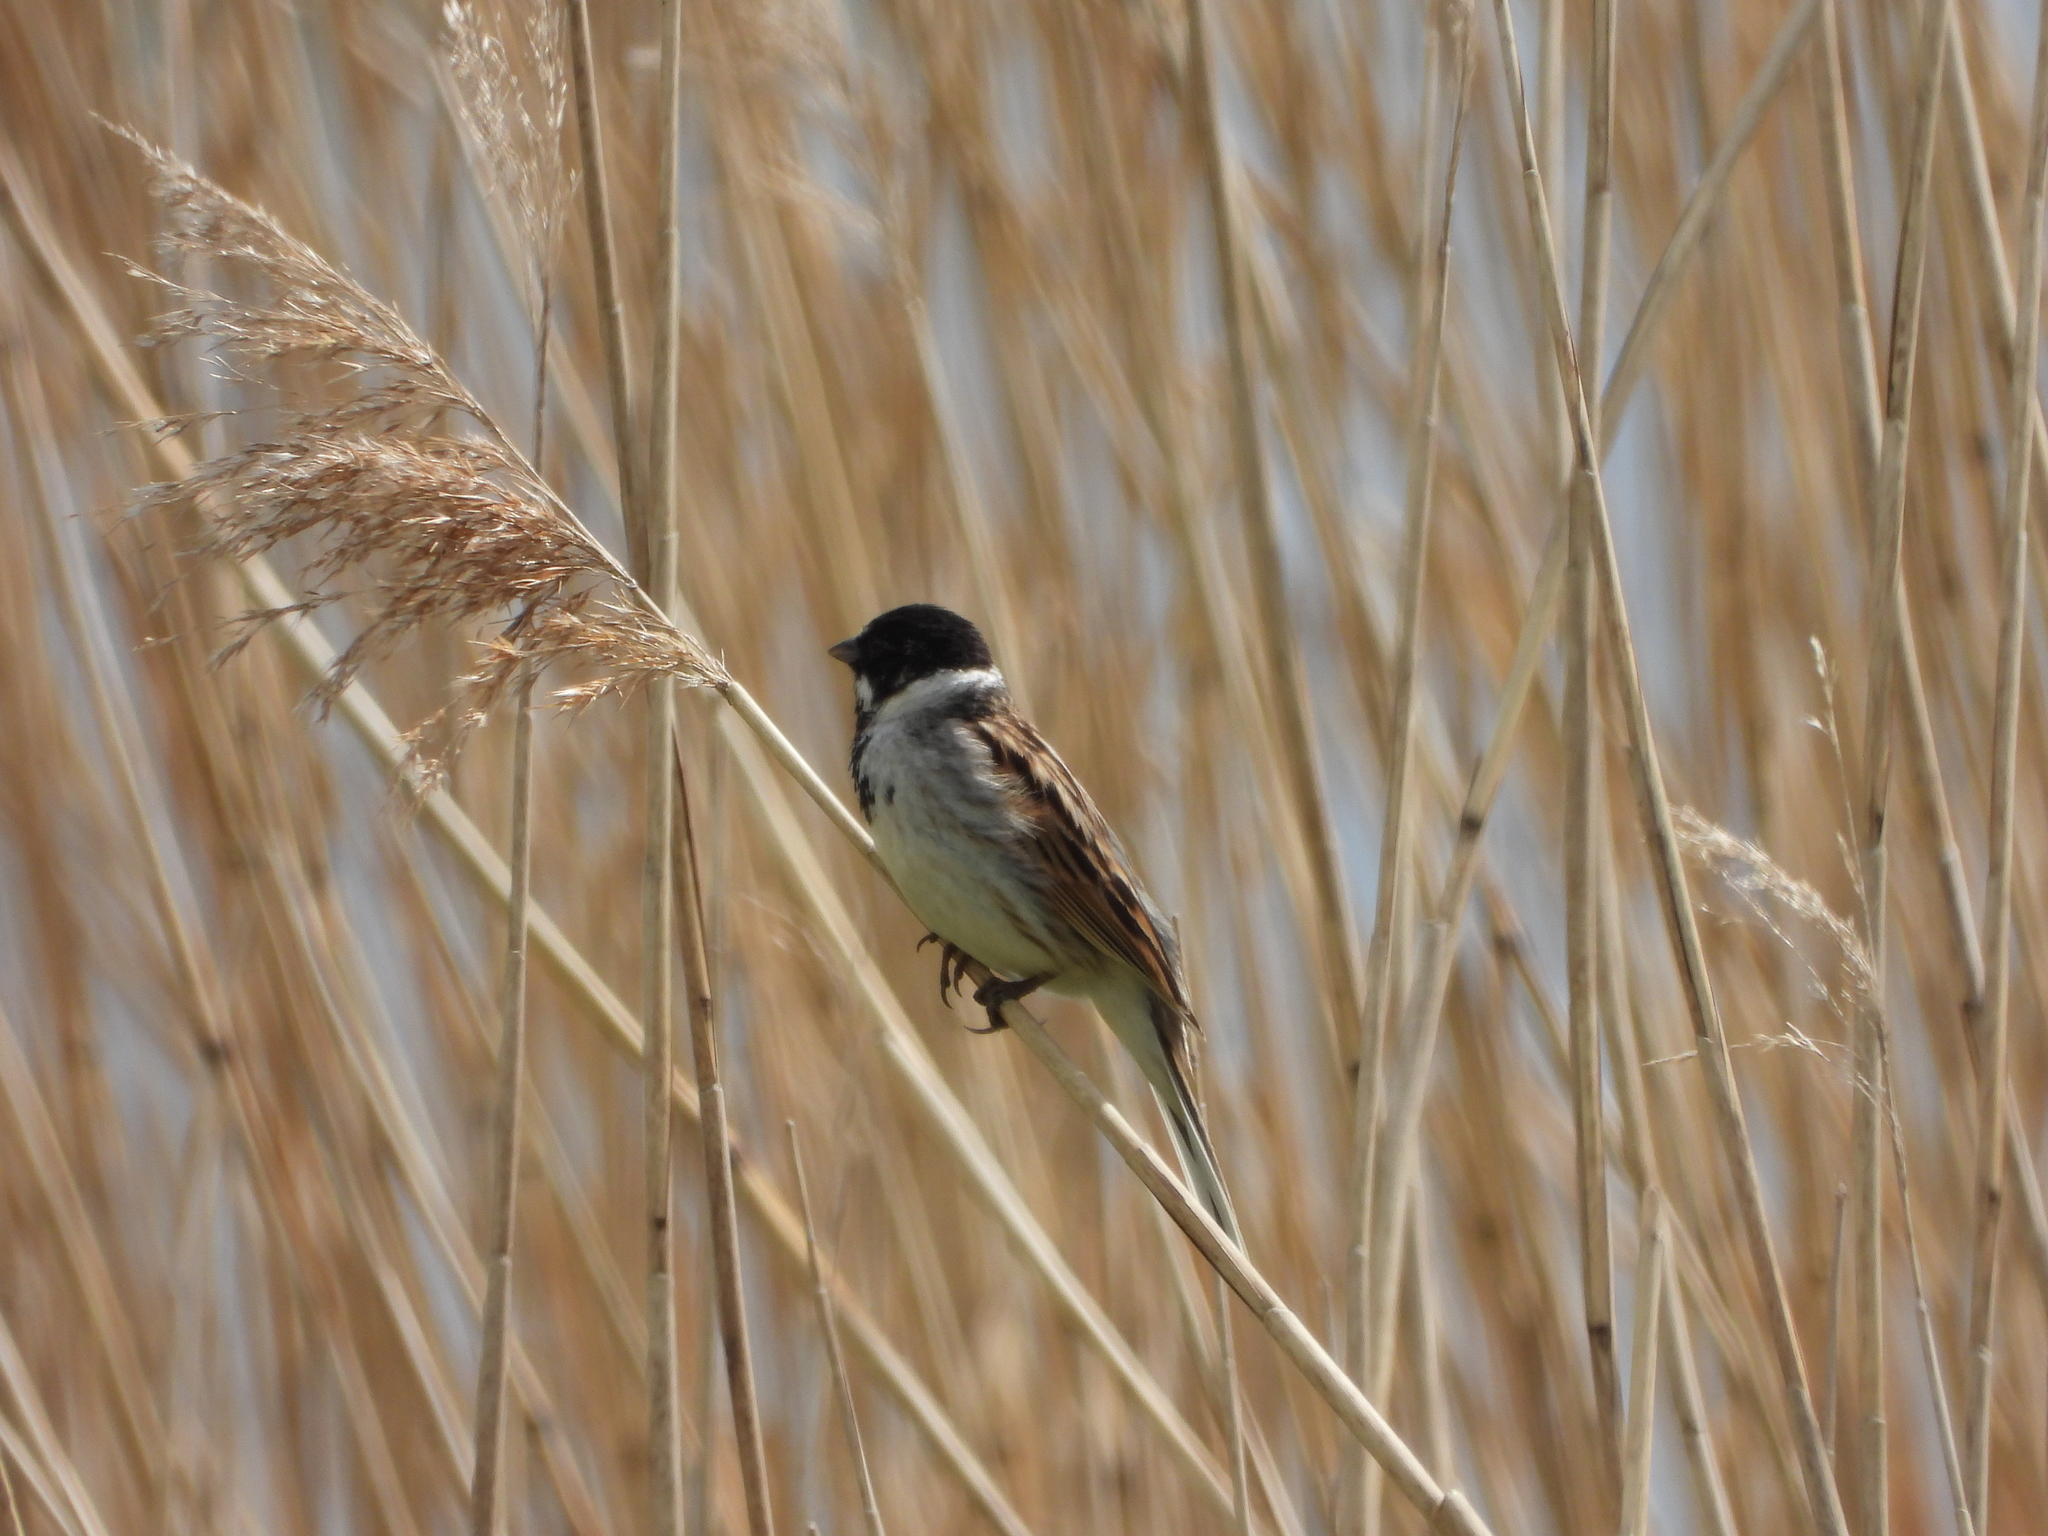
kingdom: Animalia
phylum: Chordata
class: Aves
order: Passeriformes
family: Emberizidae
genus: Emberiza
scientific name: Emberiza schoeniclus
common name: Reed bunting
